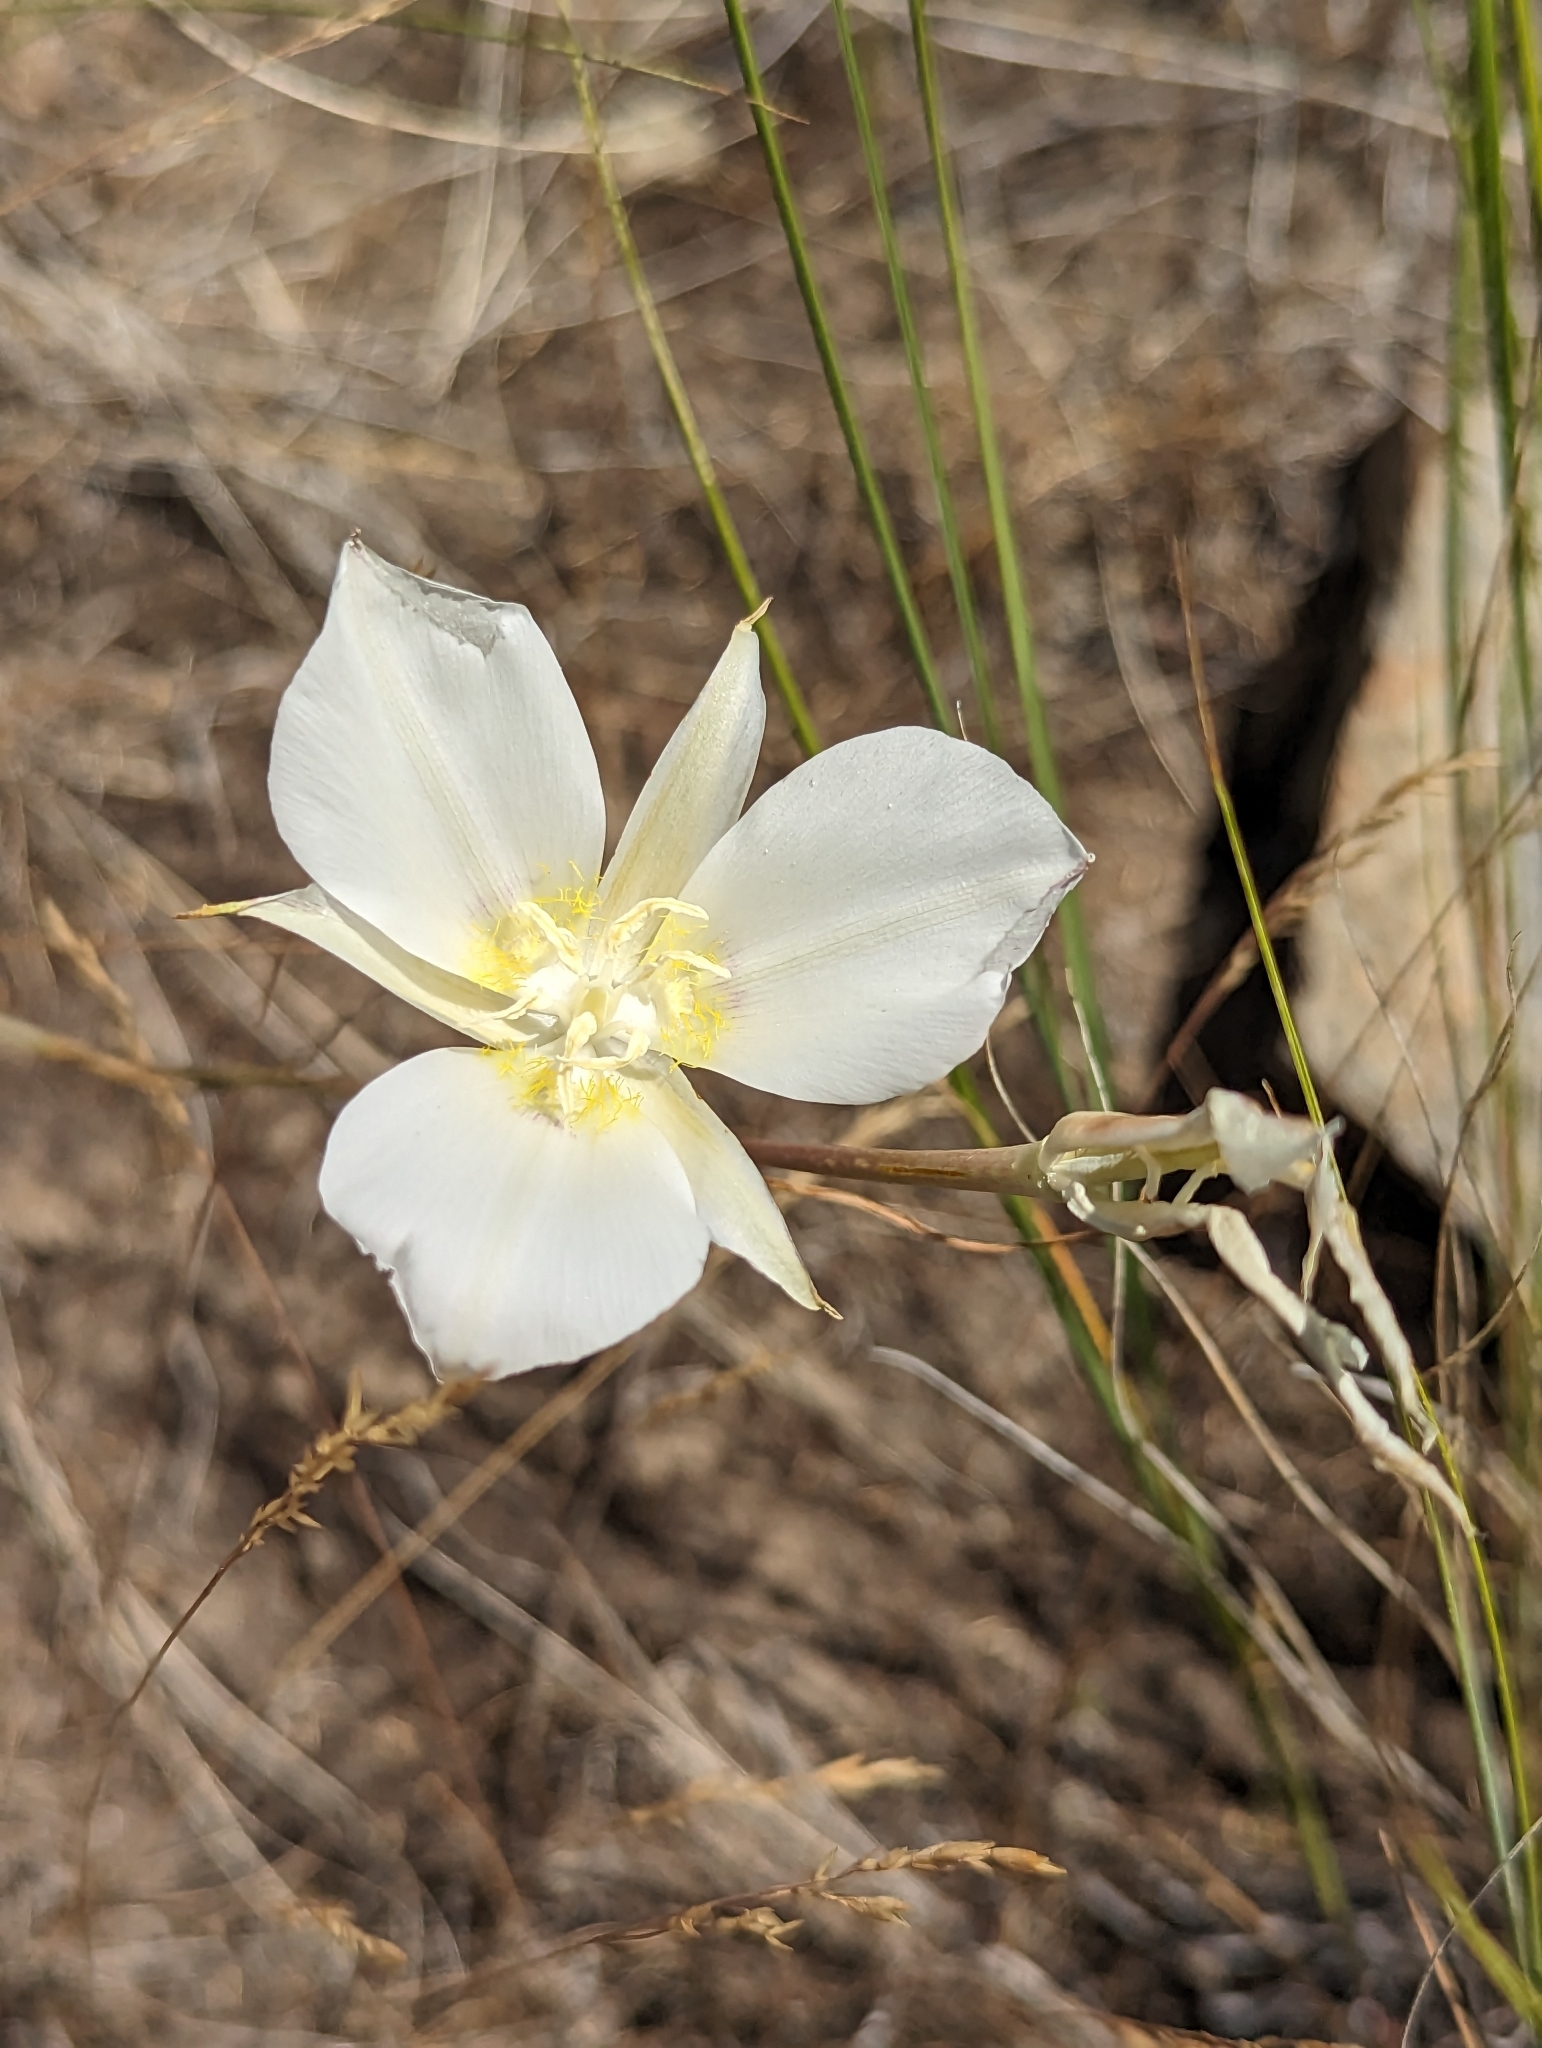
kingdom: Plantae
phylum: Tracheophyta
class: Liliopsida
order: Liliales
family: Liliaceae
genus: Calochortus
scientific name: Calochortus macrocarpus
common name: Green-band mariposa lily
